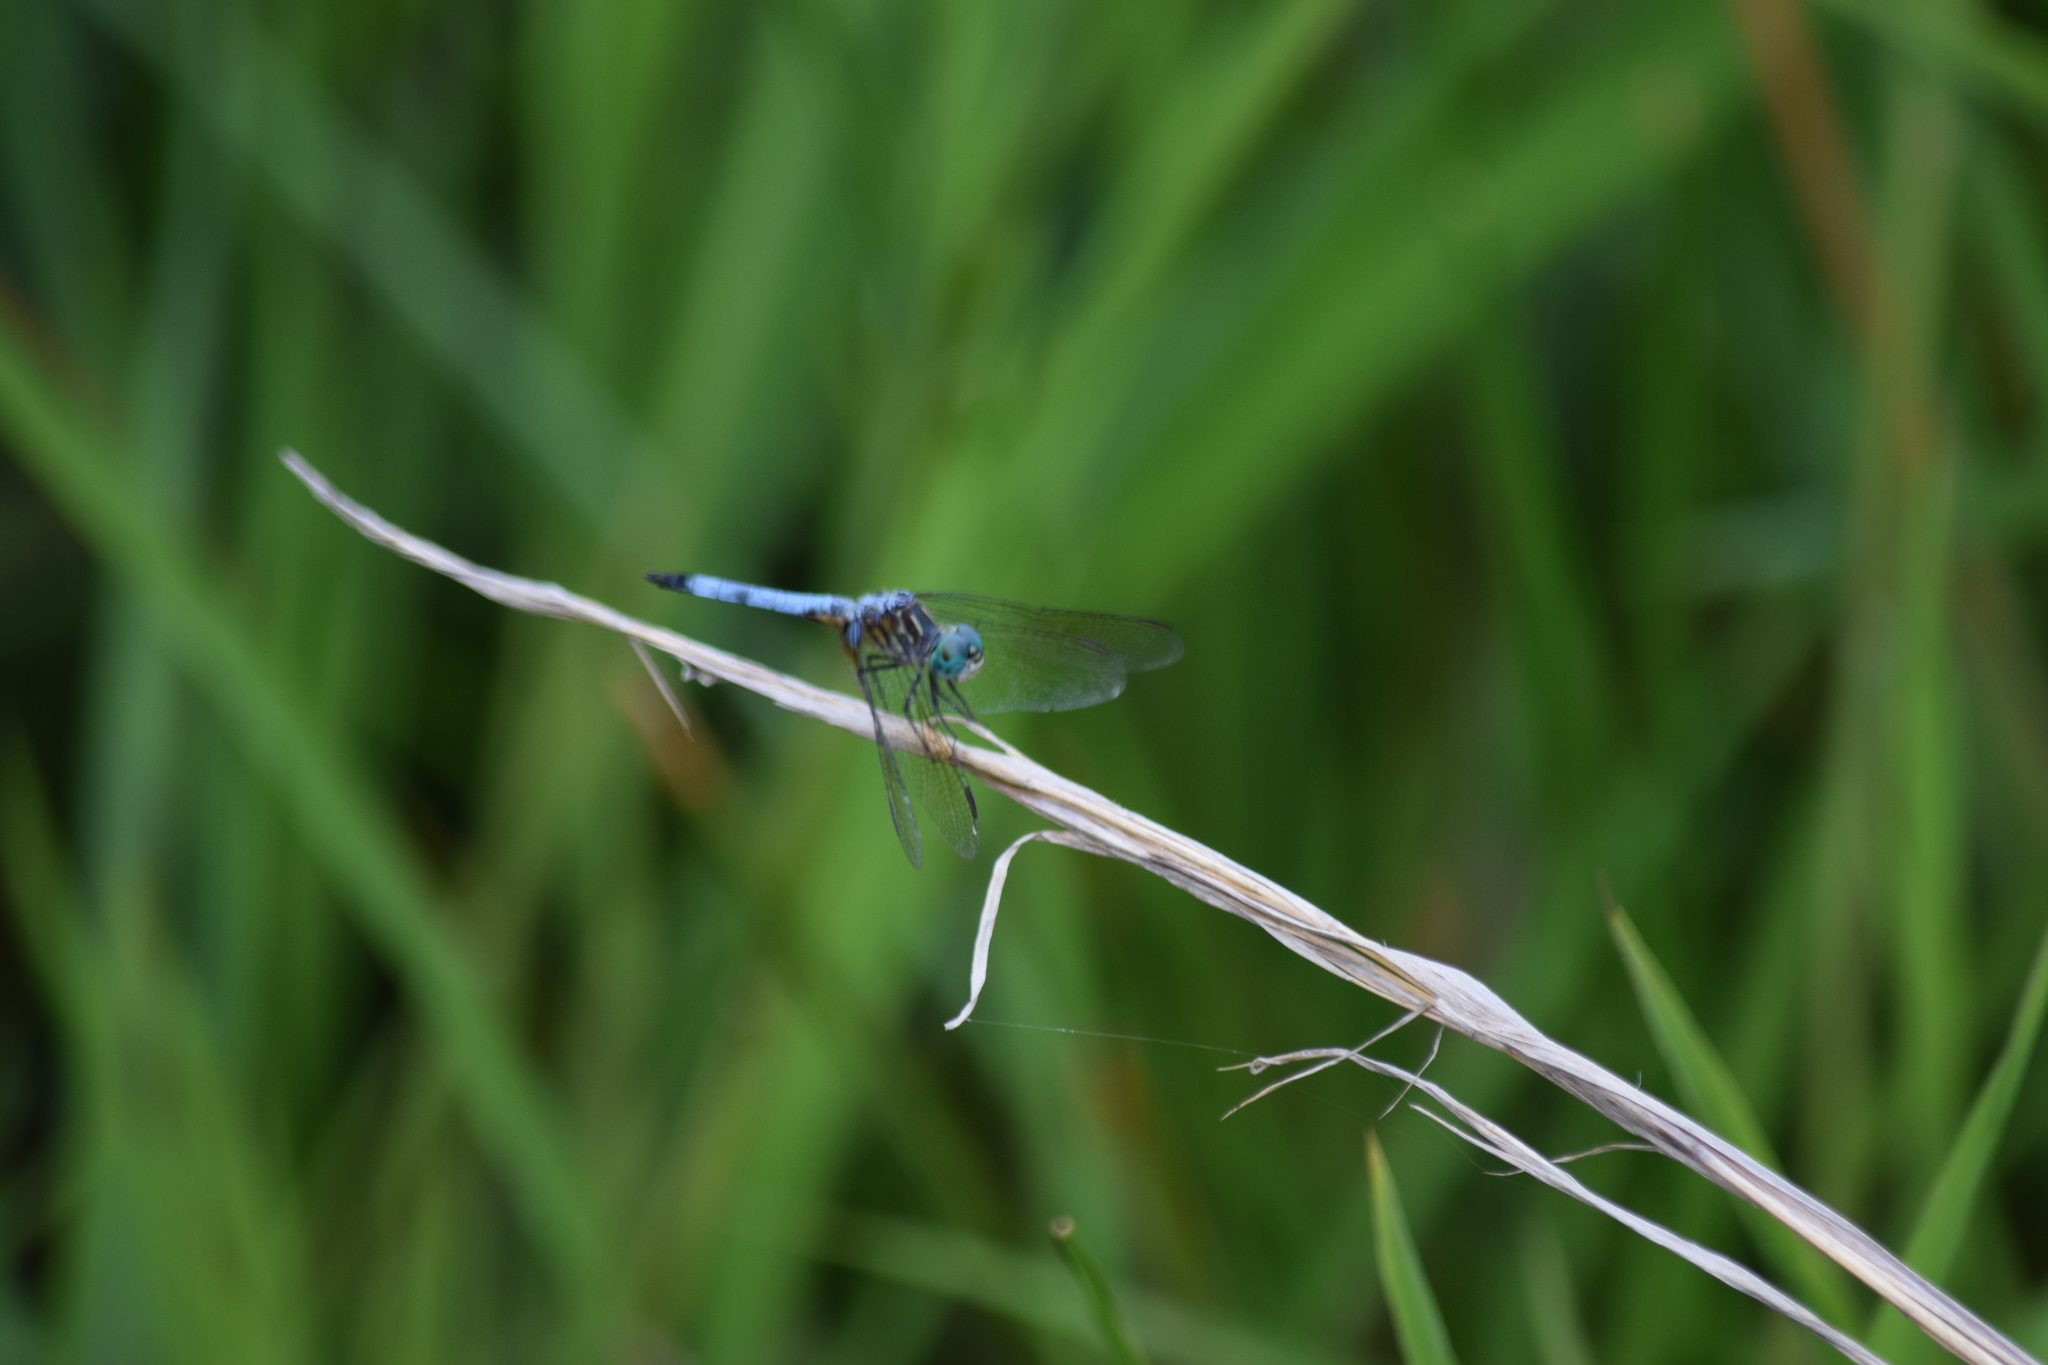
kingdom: Animalia
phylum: Arthropoda
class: Insecta
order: Odonata
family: Libellulidae
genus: Pachydiplax
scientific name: Pachydiplax longipennis
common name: Blue dasher
